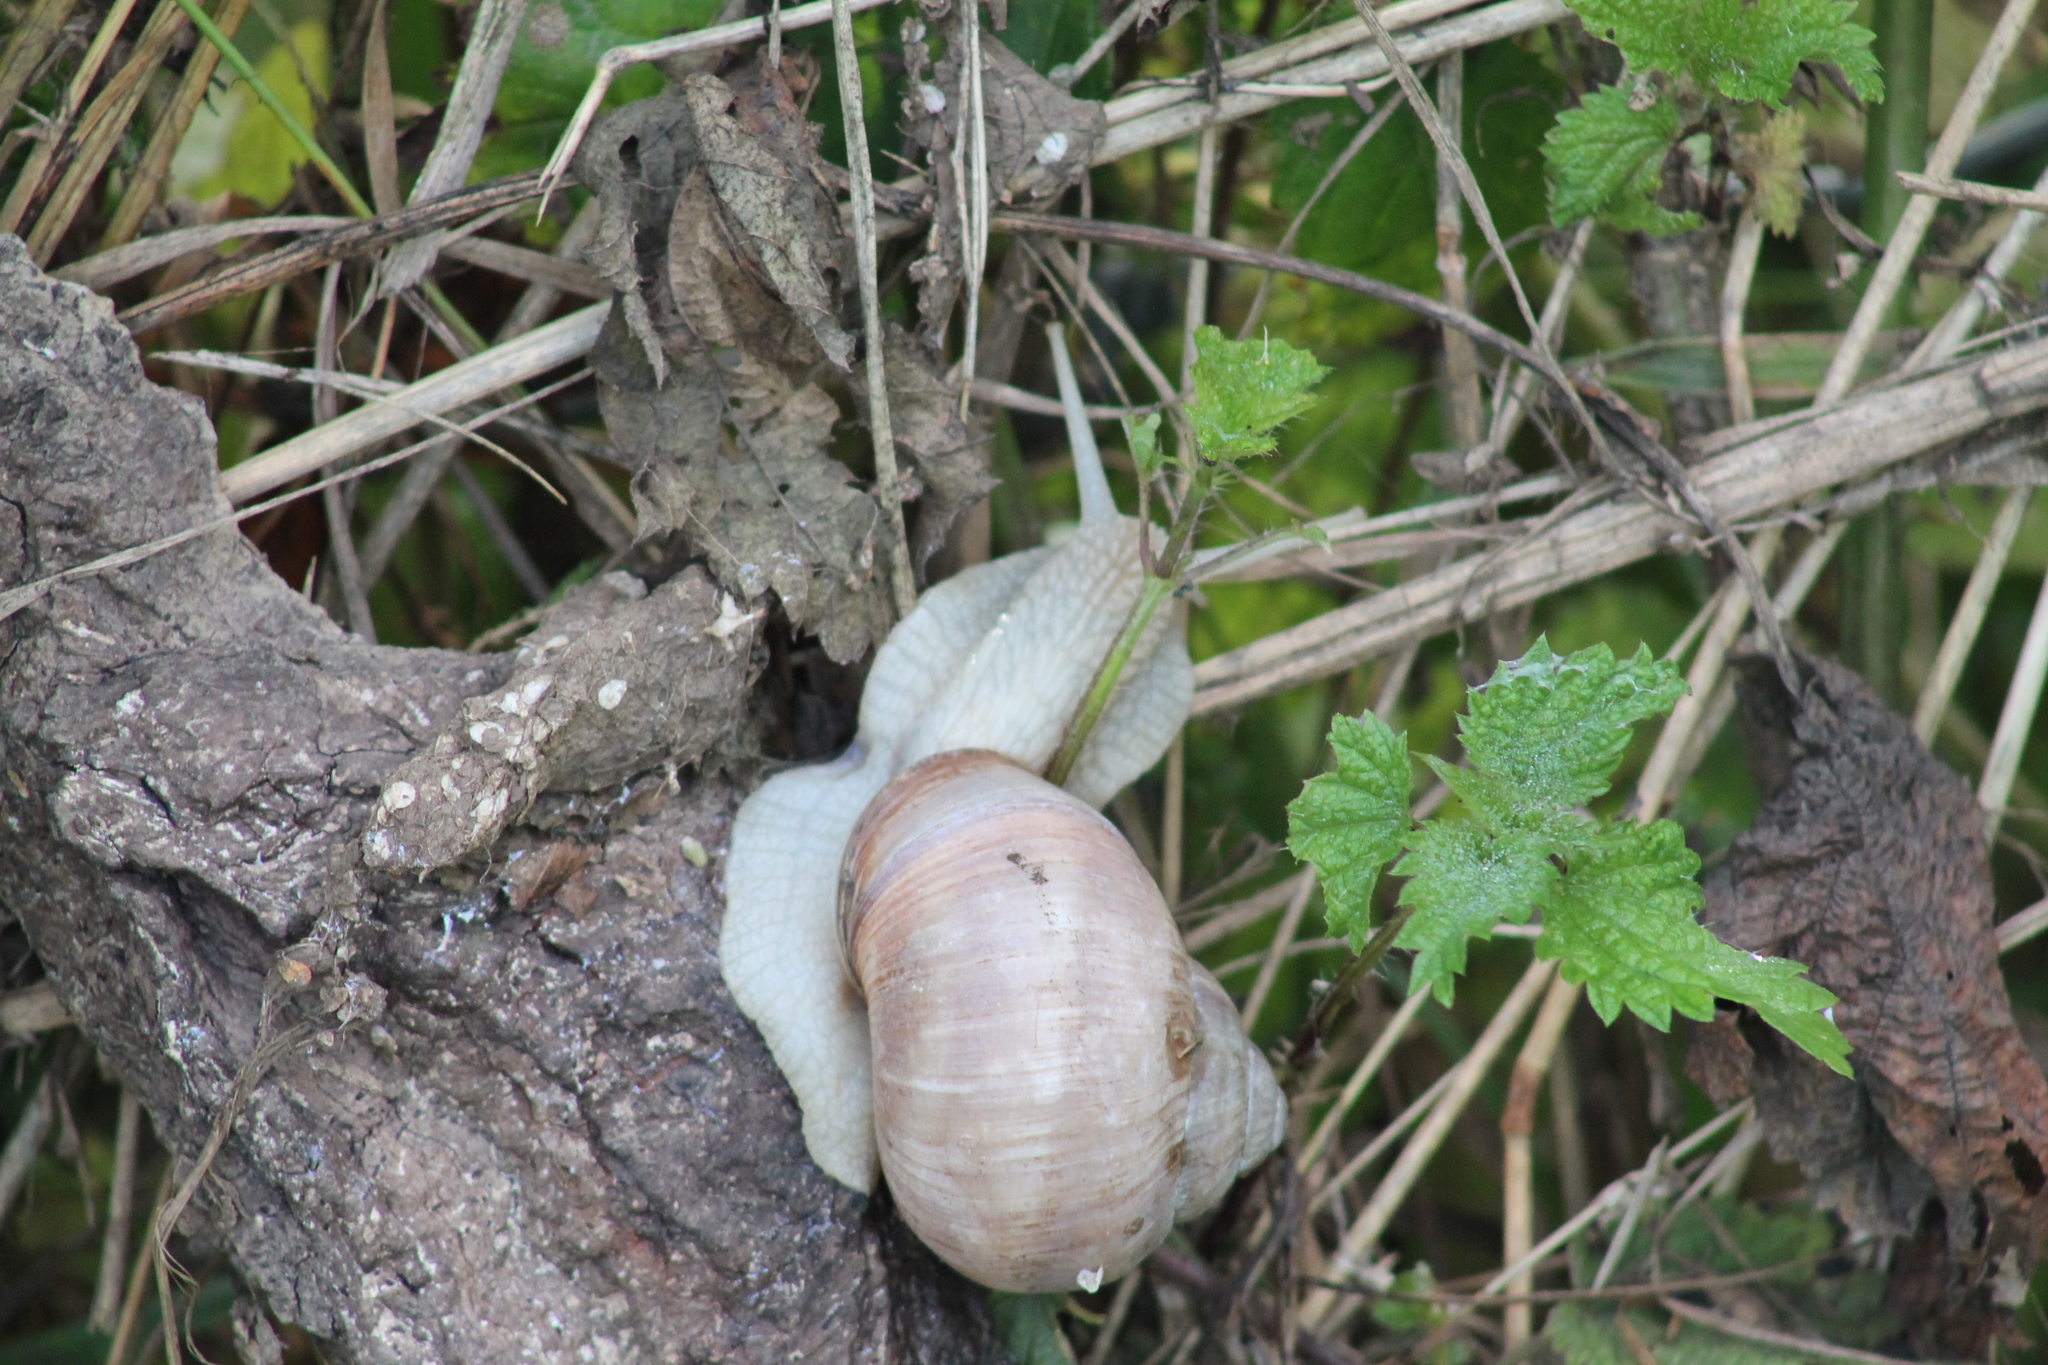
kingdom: Animalia
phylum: Mollusca
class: Gastropoda
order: Stylommatophora
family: Helicidae
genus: Helix
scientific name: Helix pomatia
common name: Roman snail
